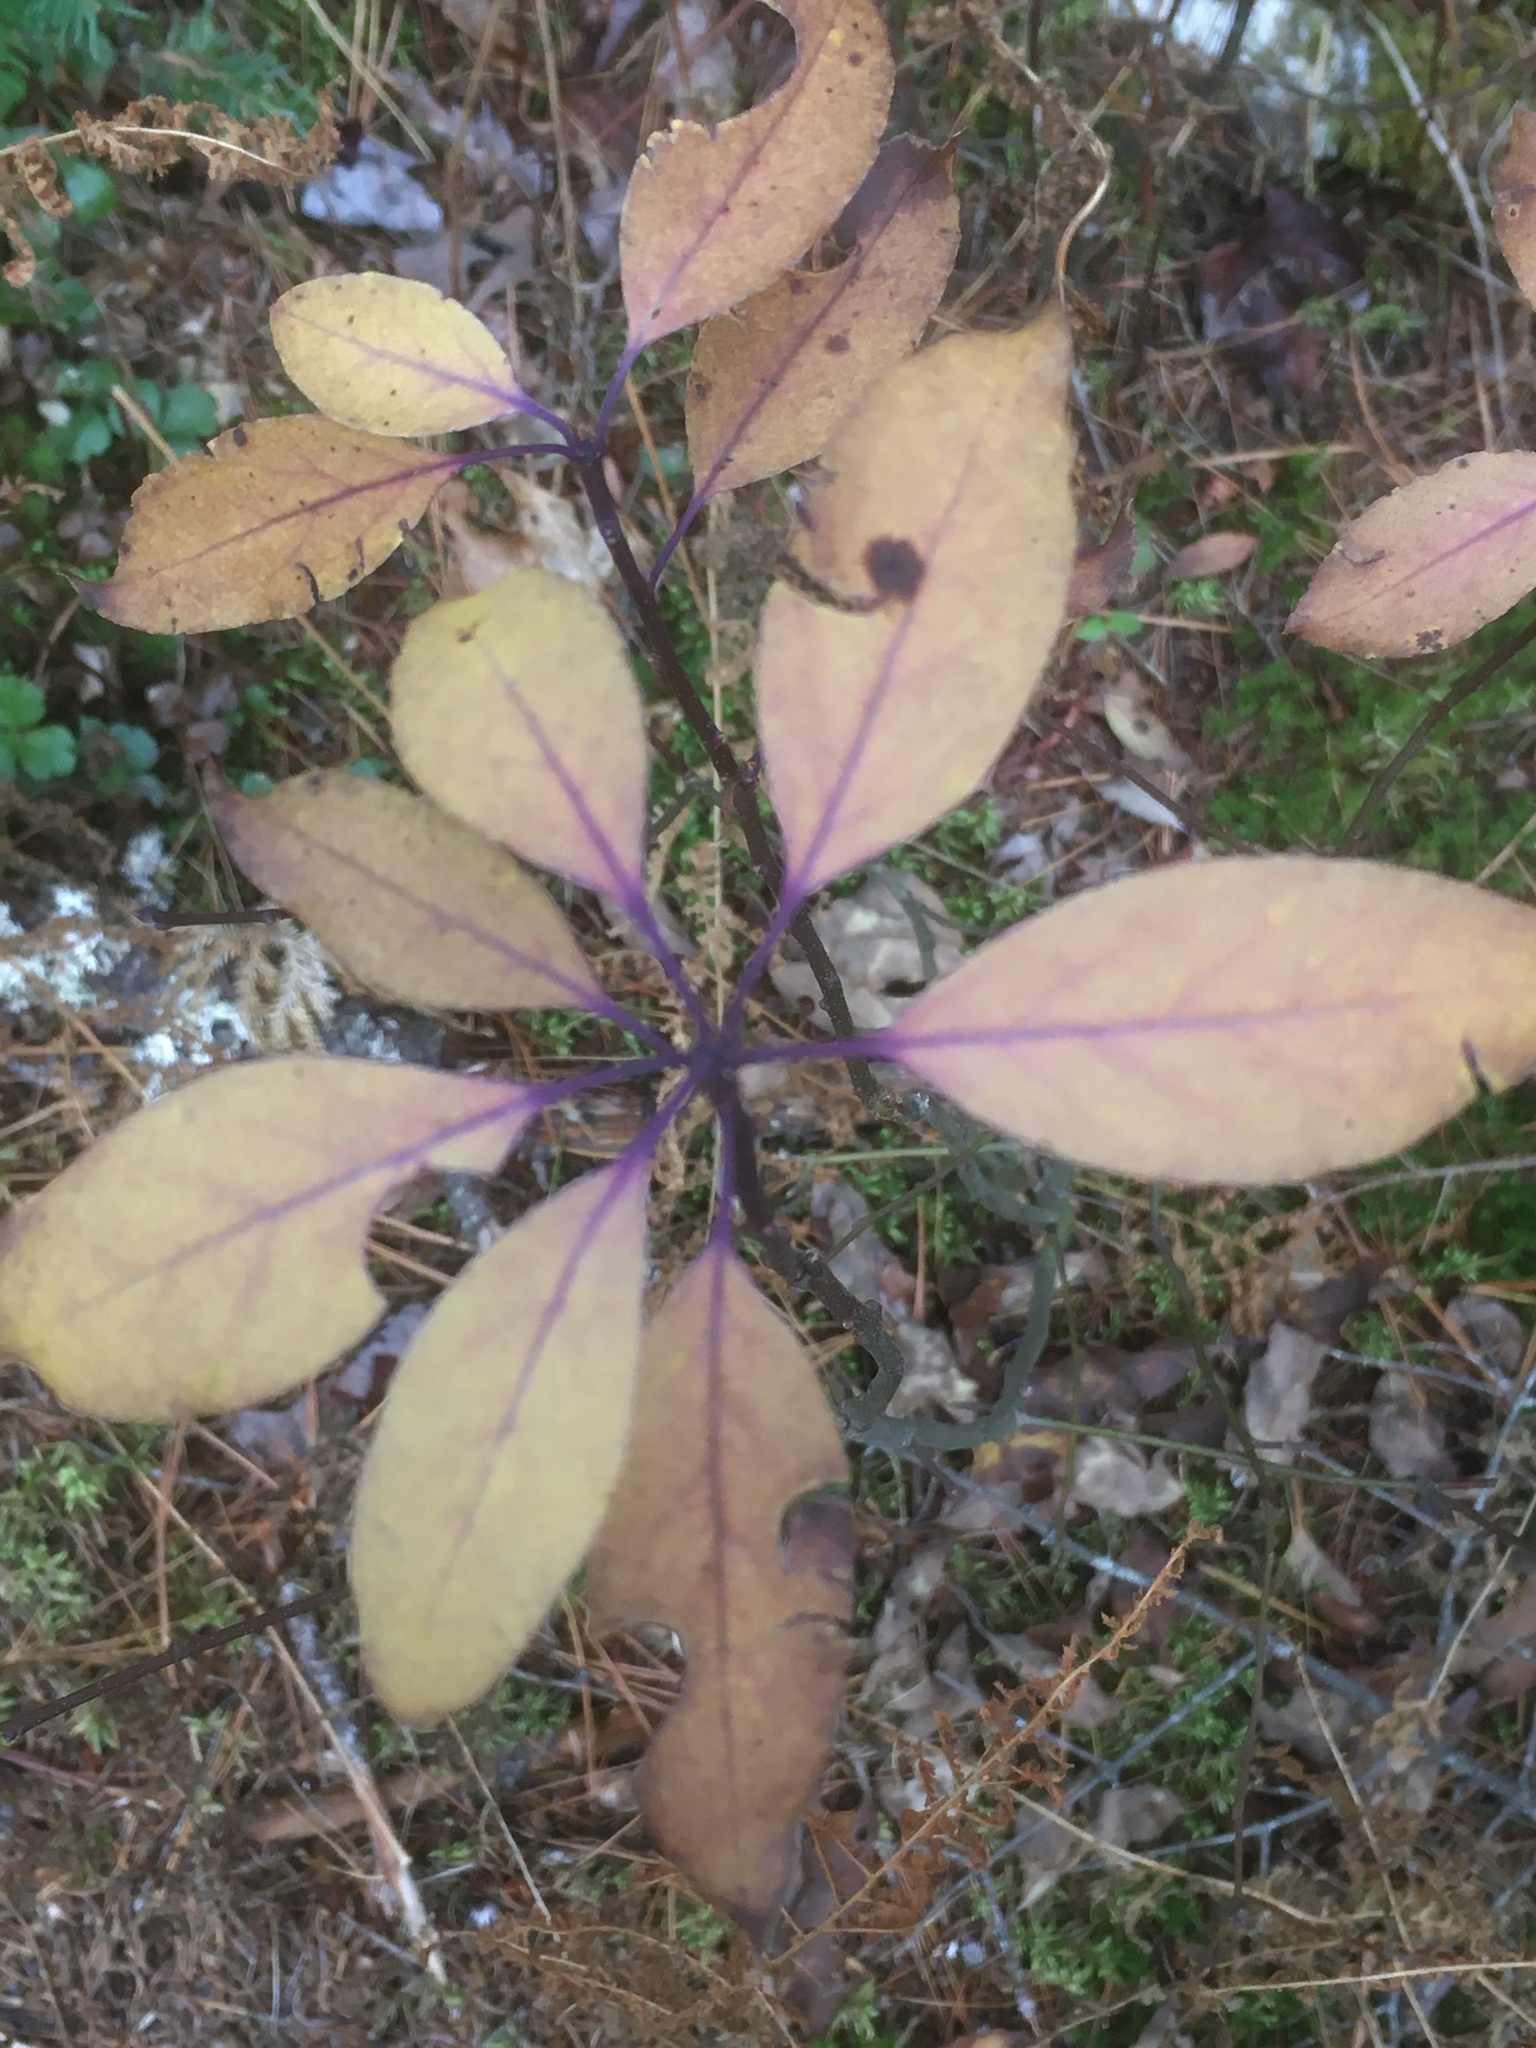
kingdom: Plantae
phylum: Tracheophyta
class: Magnoliopsida
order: Aquifoliales
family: Aquifoliaceae
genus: Ilex
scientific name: Ilex mucronata
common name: Catberry
